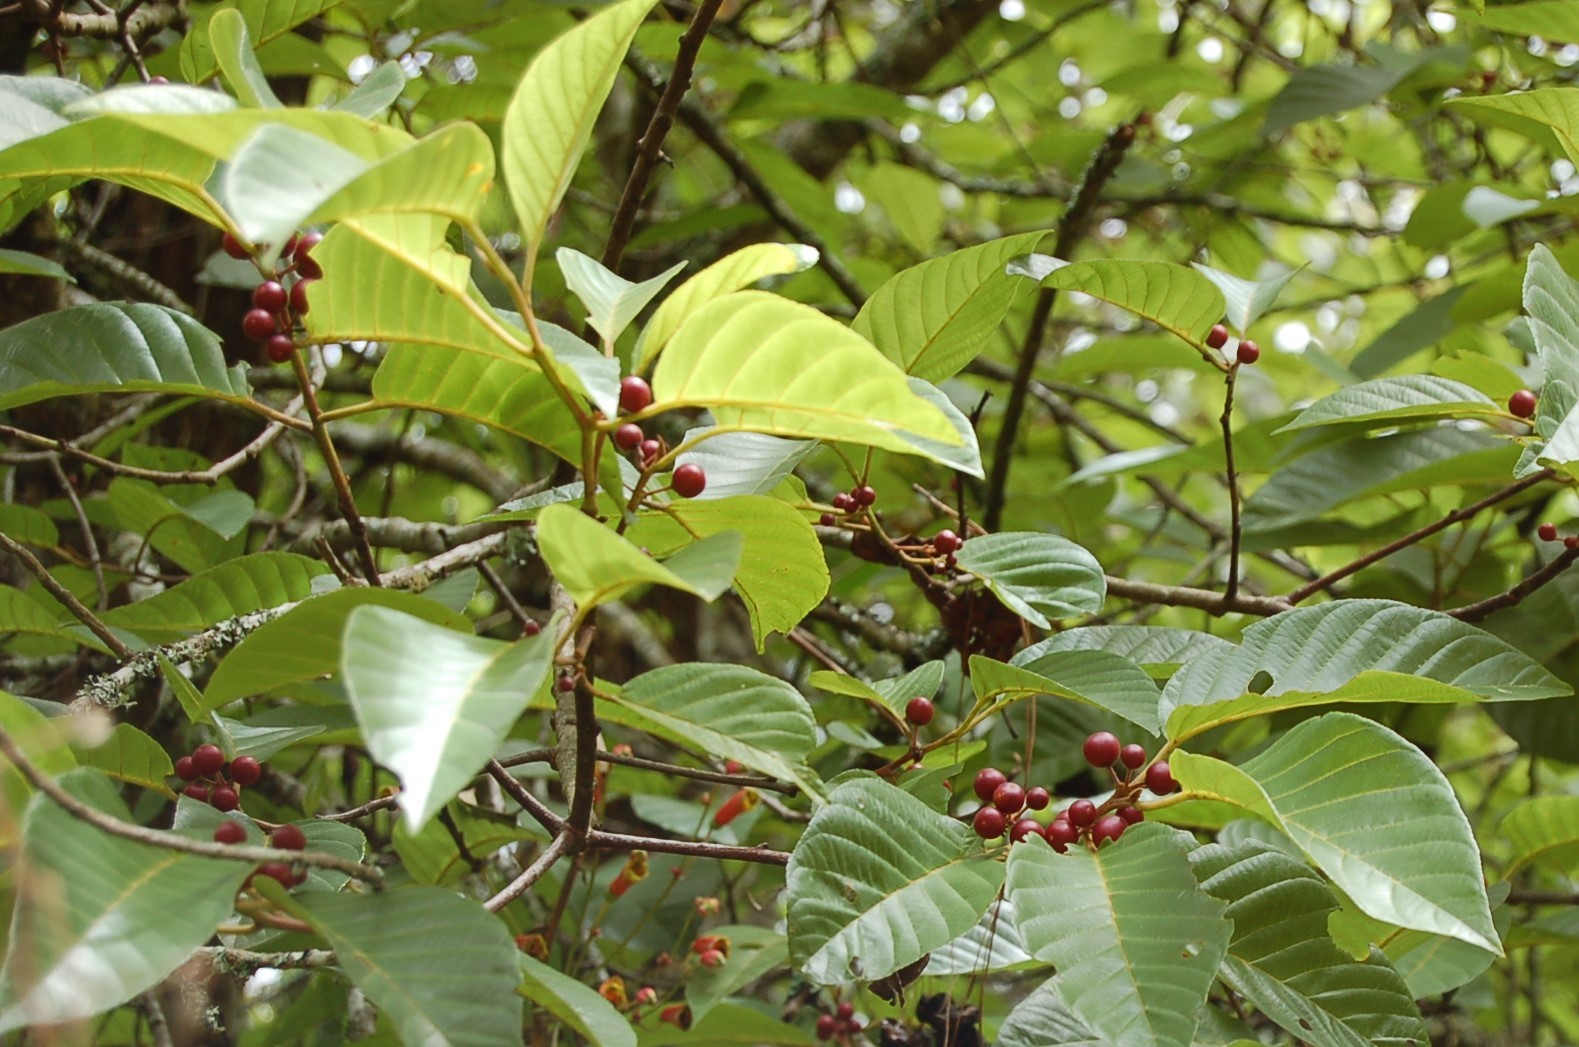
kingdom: Plantae
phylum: Tracheophyta
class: Magnoliopsida
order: Rosales
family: Rhamnaceae
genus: Frangula
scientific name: Frangula capreifolia
